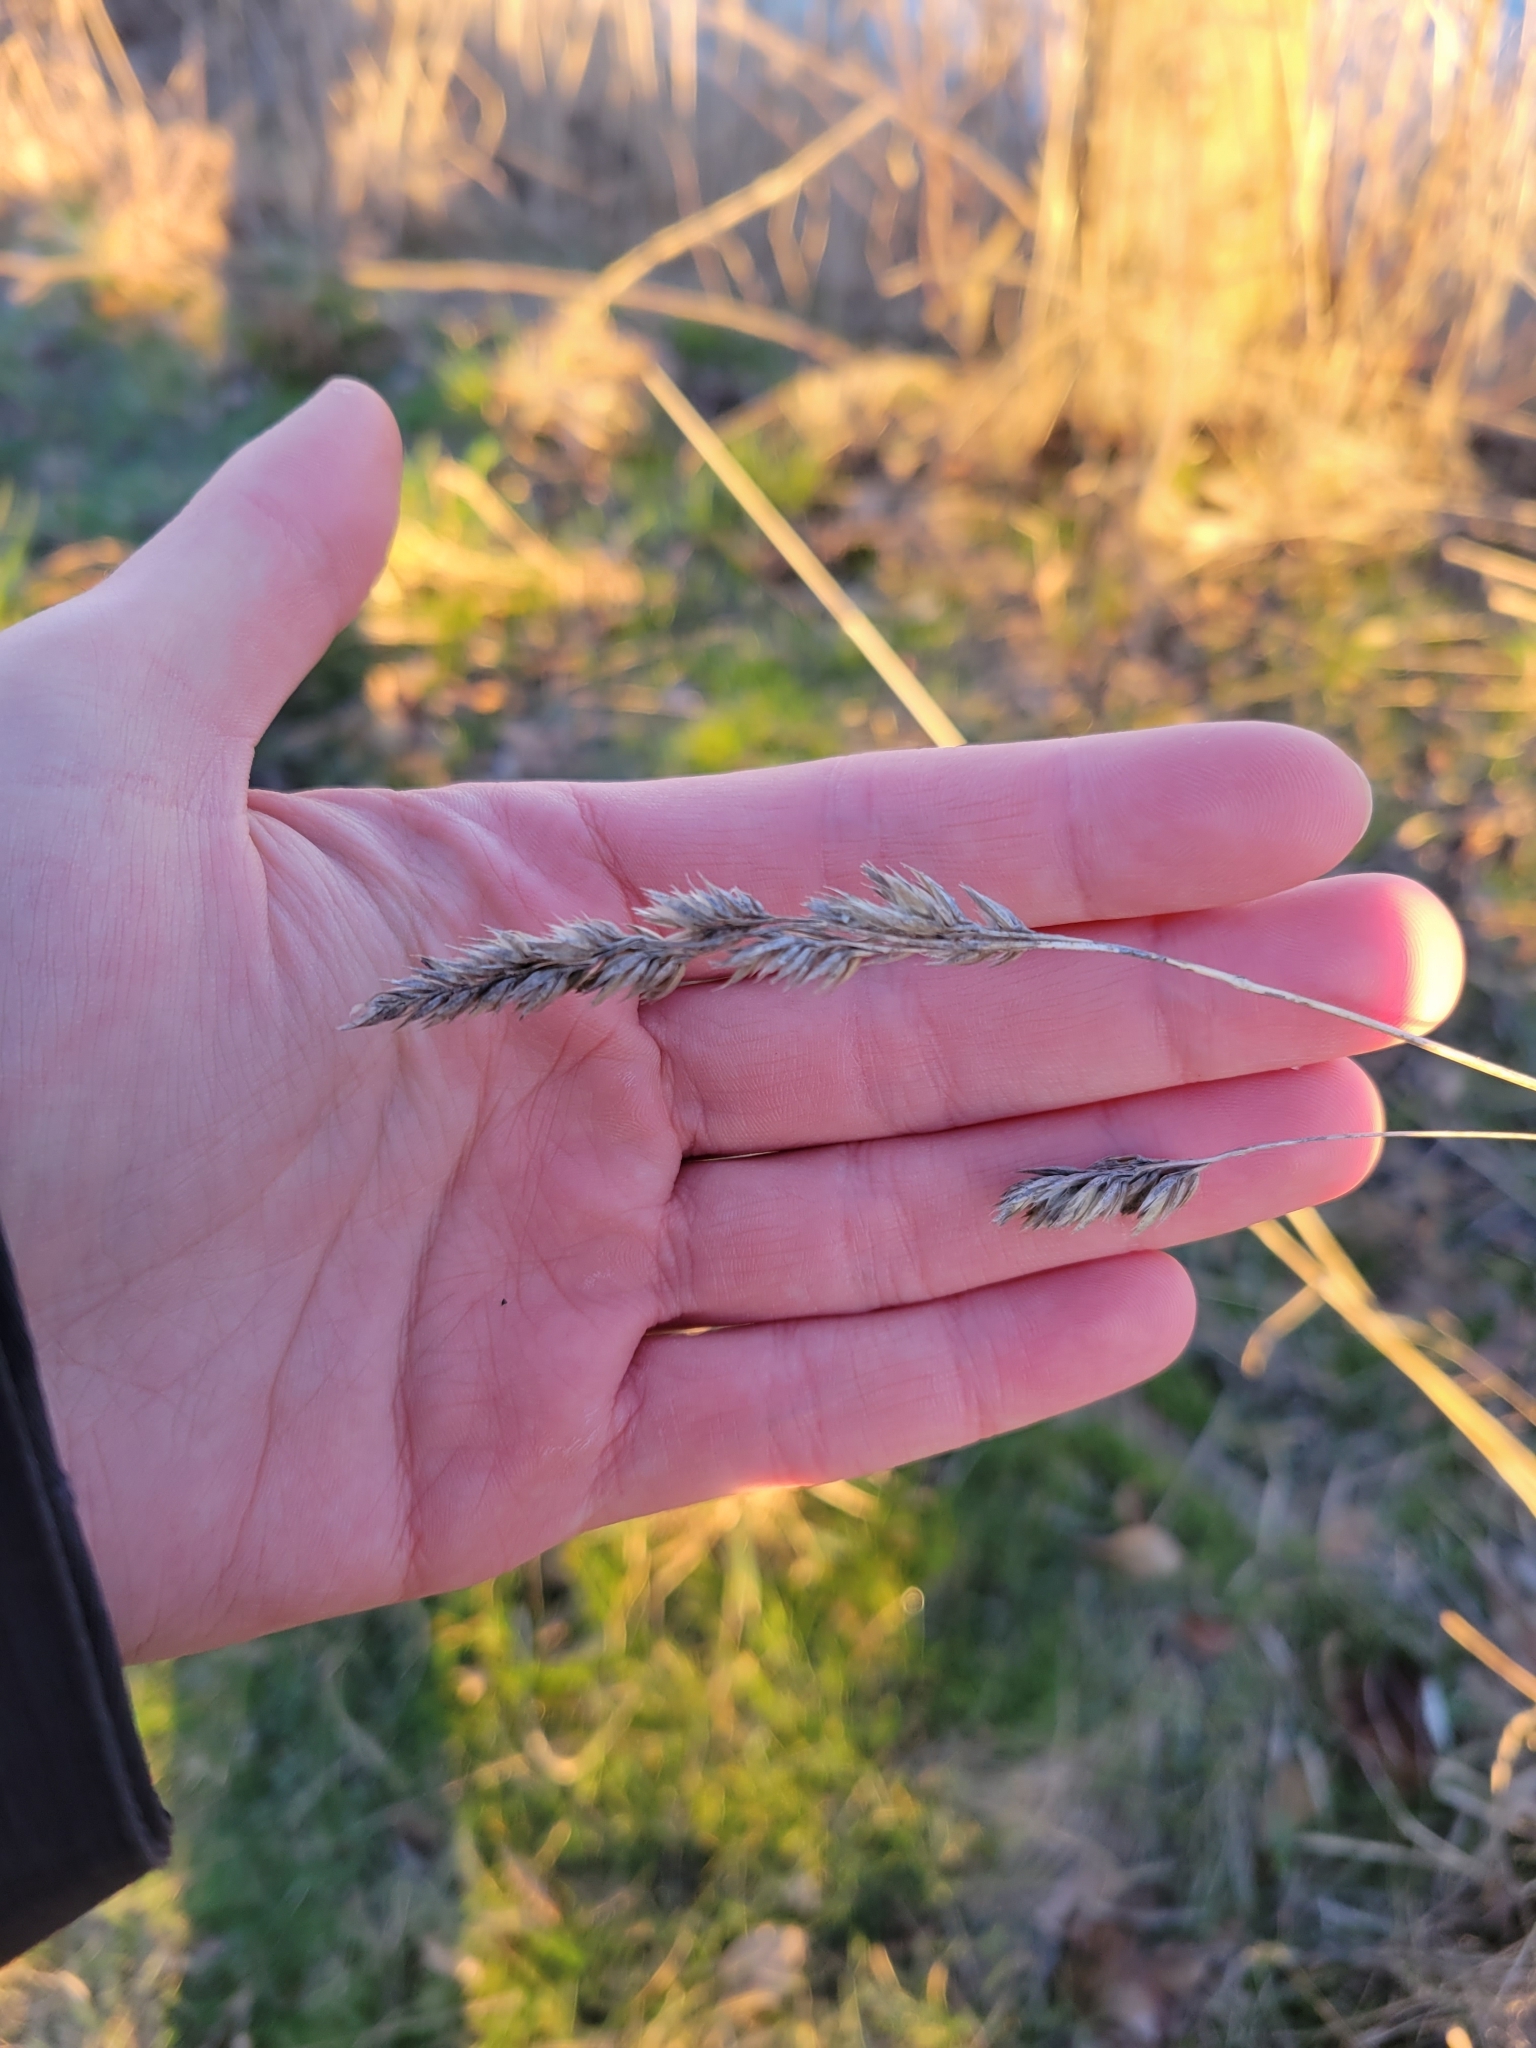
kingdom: Plantae
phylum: Tracheophyta
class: Liliopsida
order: Poales
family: Poaceae
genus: Dactylis
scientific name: Dactylis glomerata
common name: Orchardgrass
